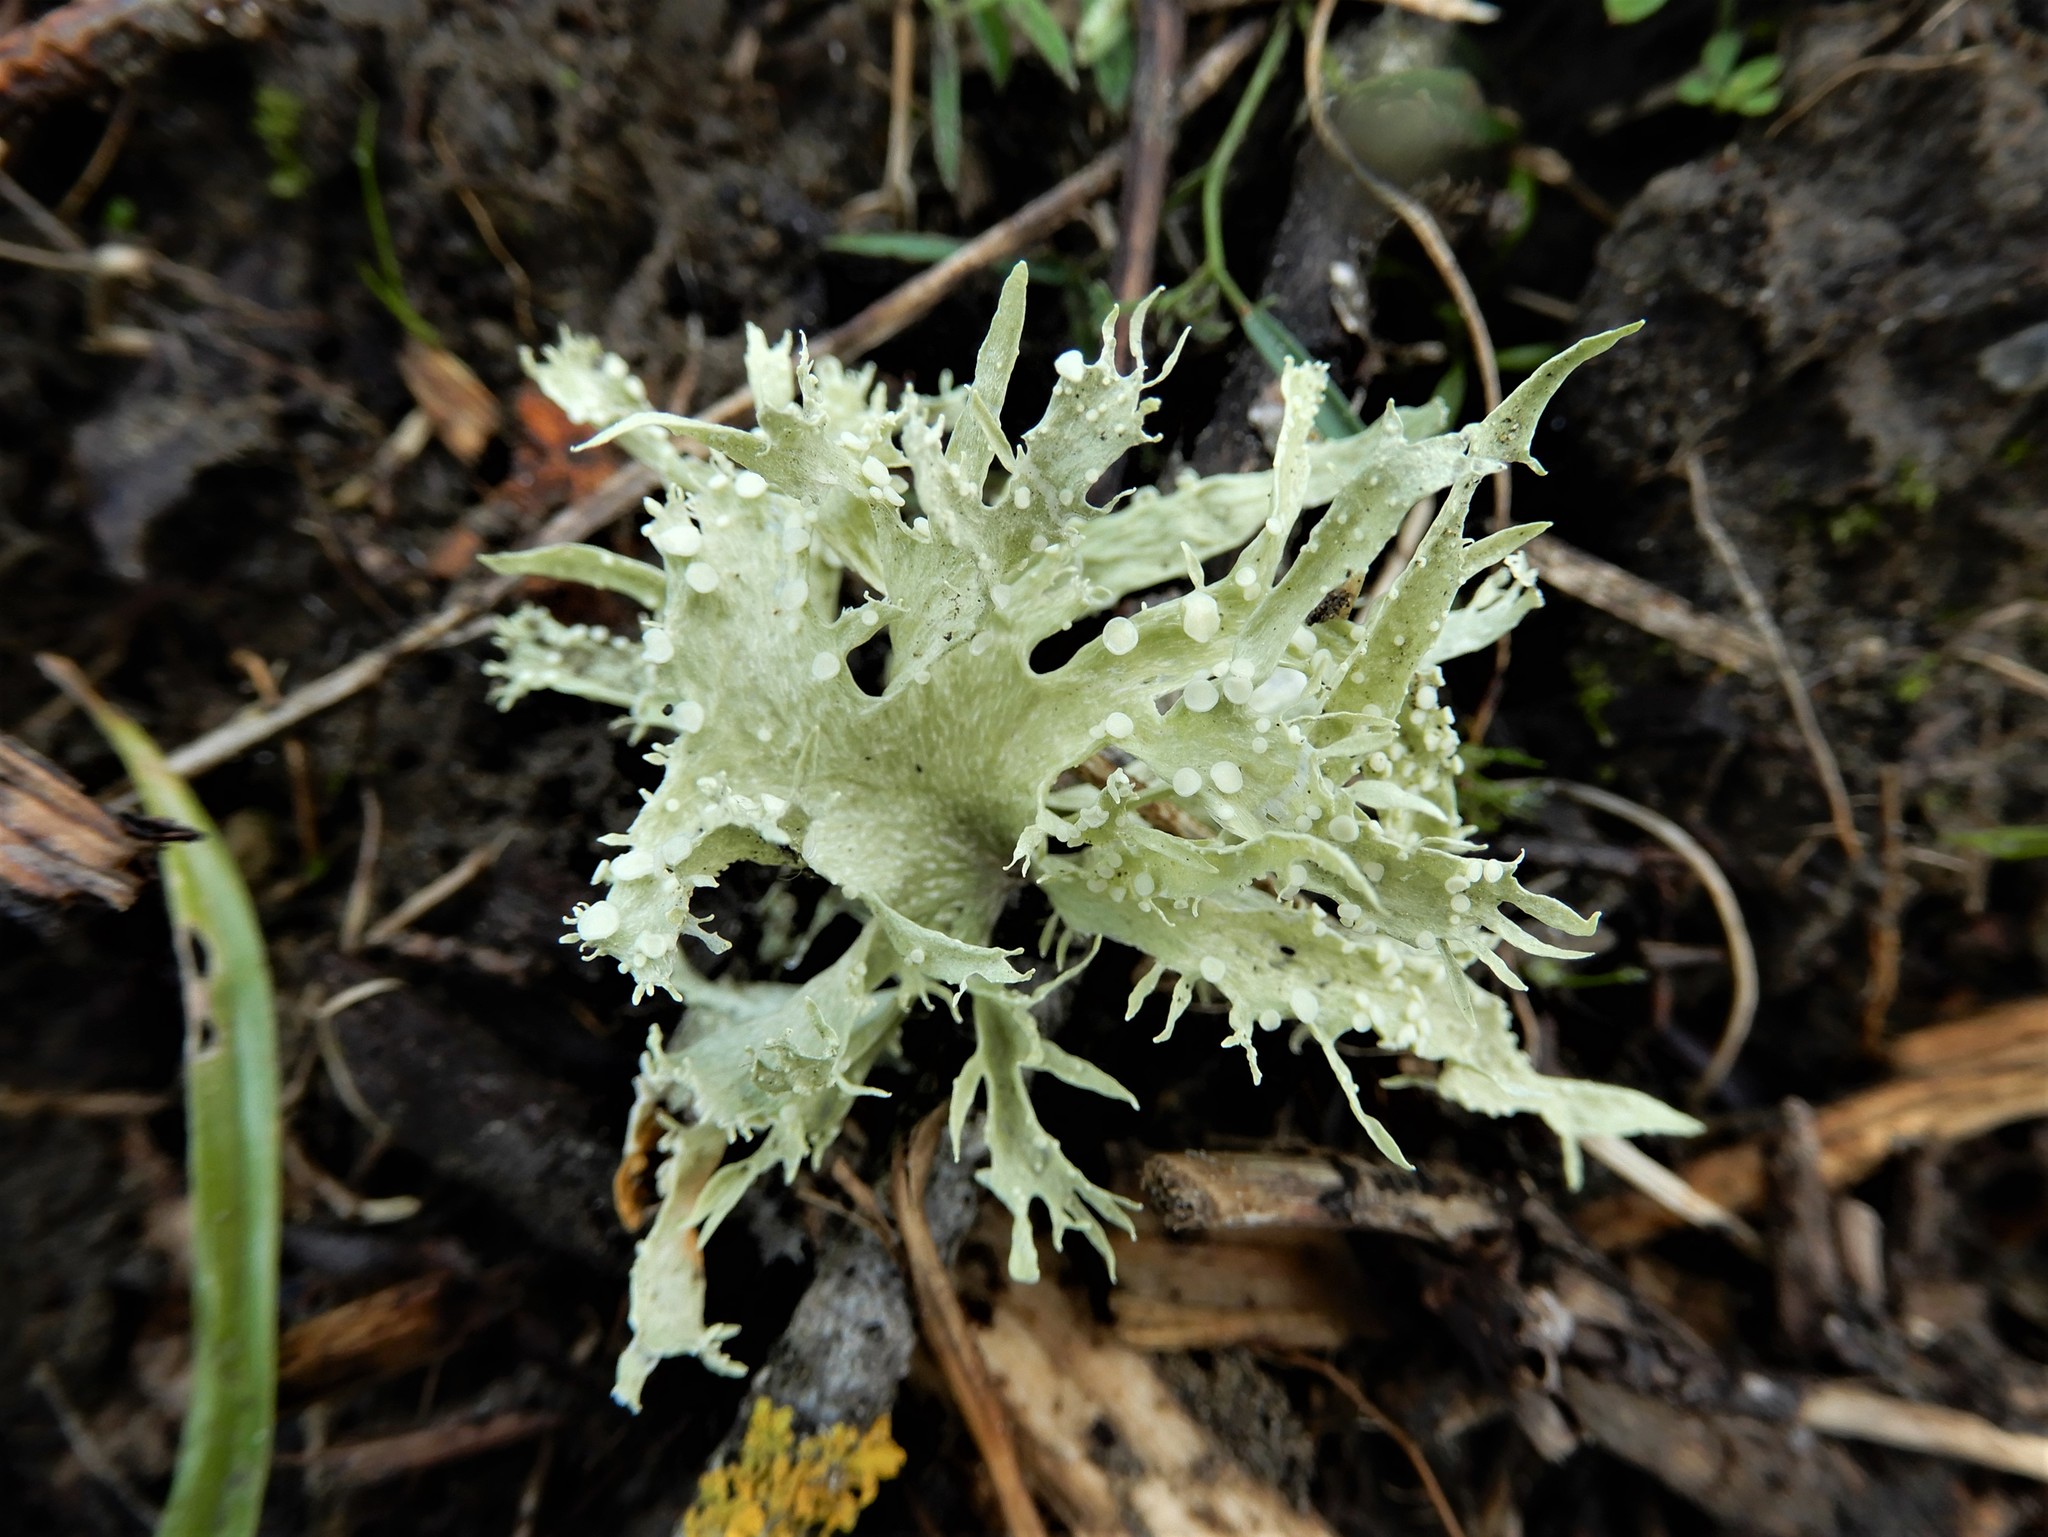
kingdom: Fungi
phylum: Ascomycota
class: Lecanoromycetes
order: Lecanorales
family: Ramalinaceae
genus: Ramalina
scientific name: Ramalina celastri
